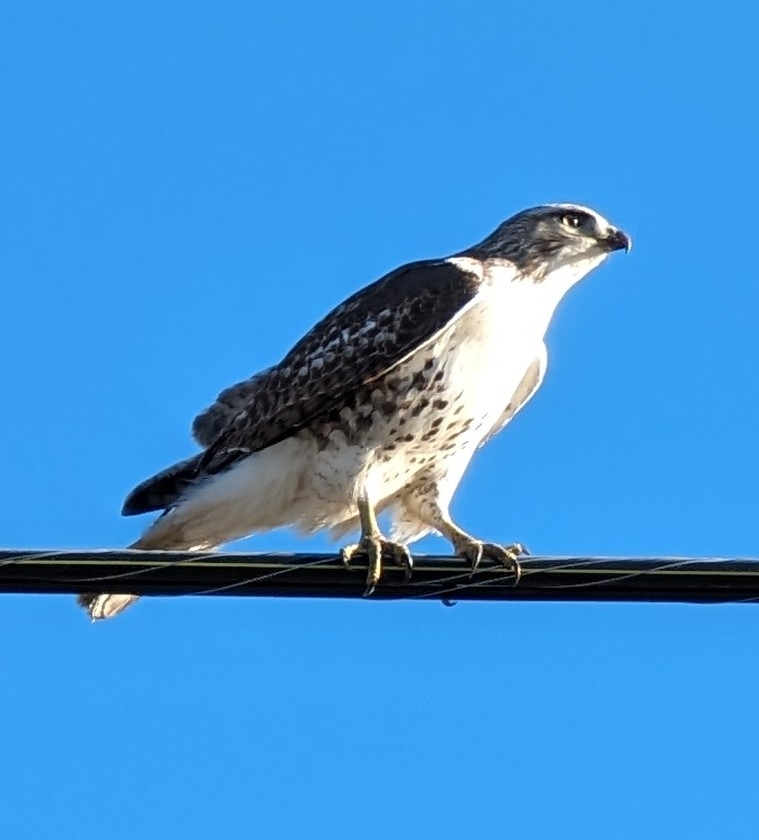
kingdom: Animalia
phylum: Chordata
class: Aves
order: Accipitriformes
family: Accipitridae
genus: Buteo
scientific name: Buteo jamaicensis
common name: Red-tailed hawk
